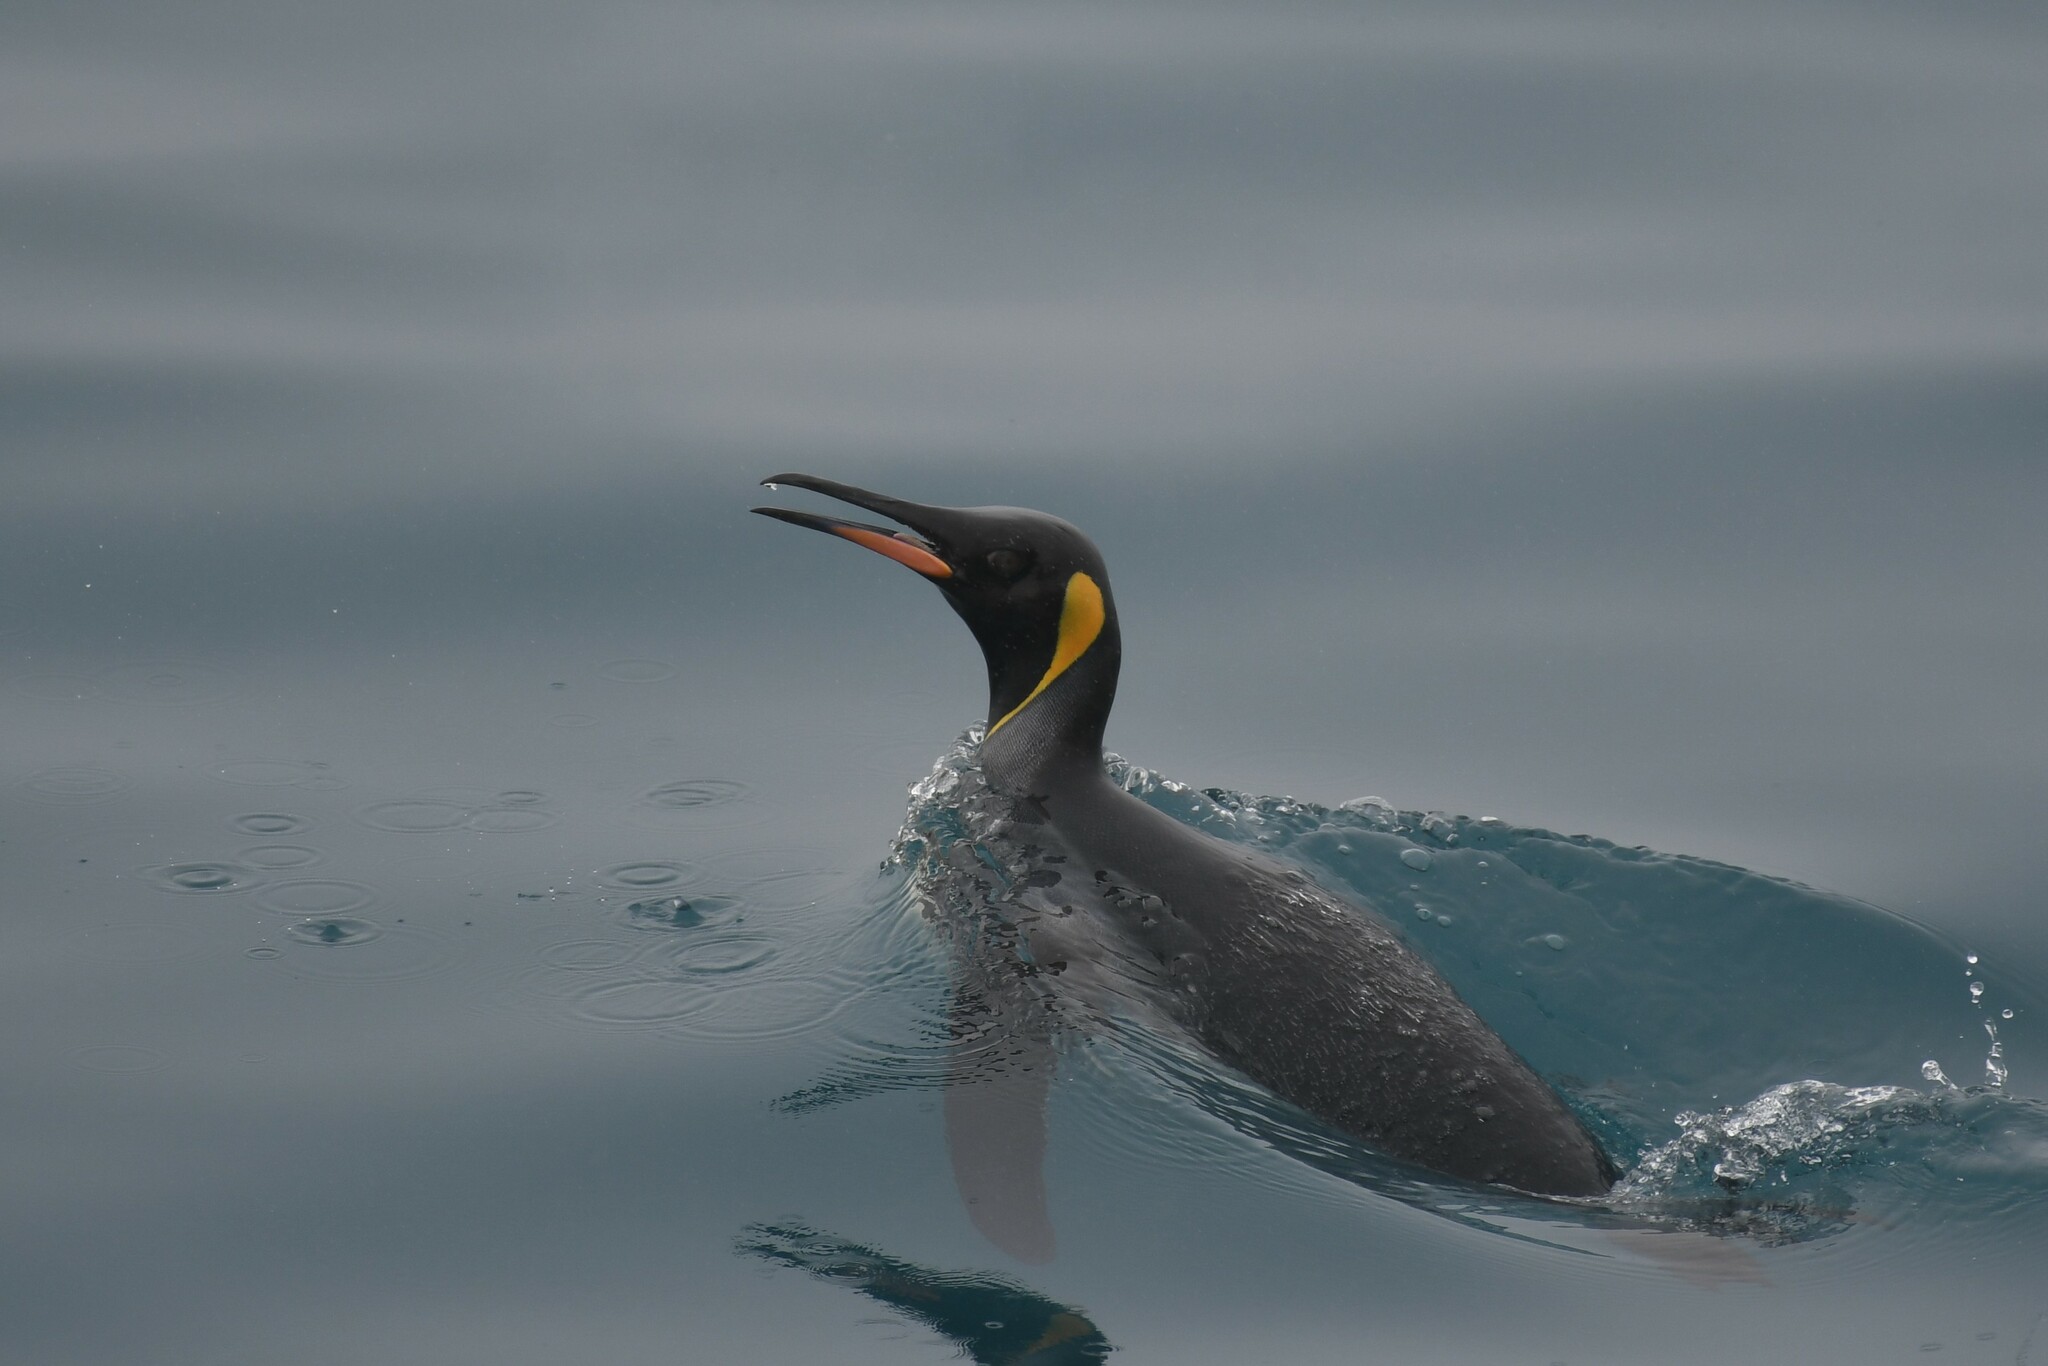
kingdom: Animalia
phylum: Chordata
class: Aves
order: Sphenisciformes
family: Spheniscidae
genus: Aptenodytes
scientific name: Aptenodytes patagonicus
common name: King penguin
